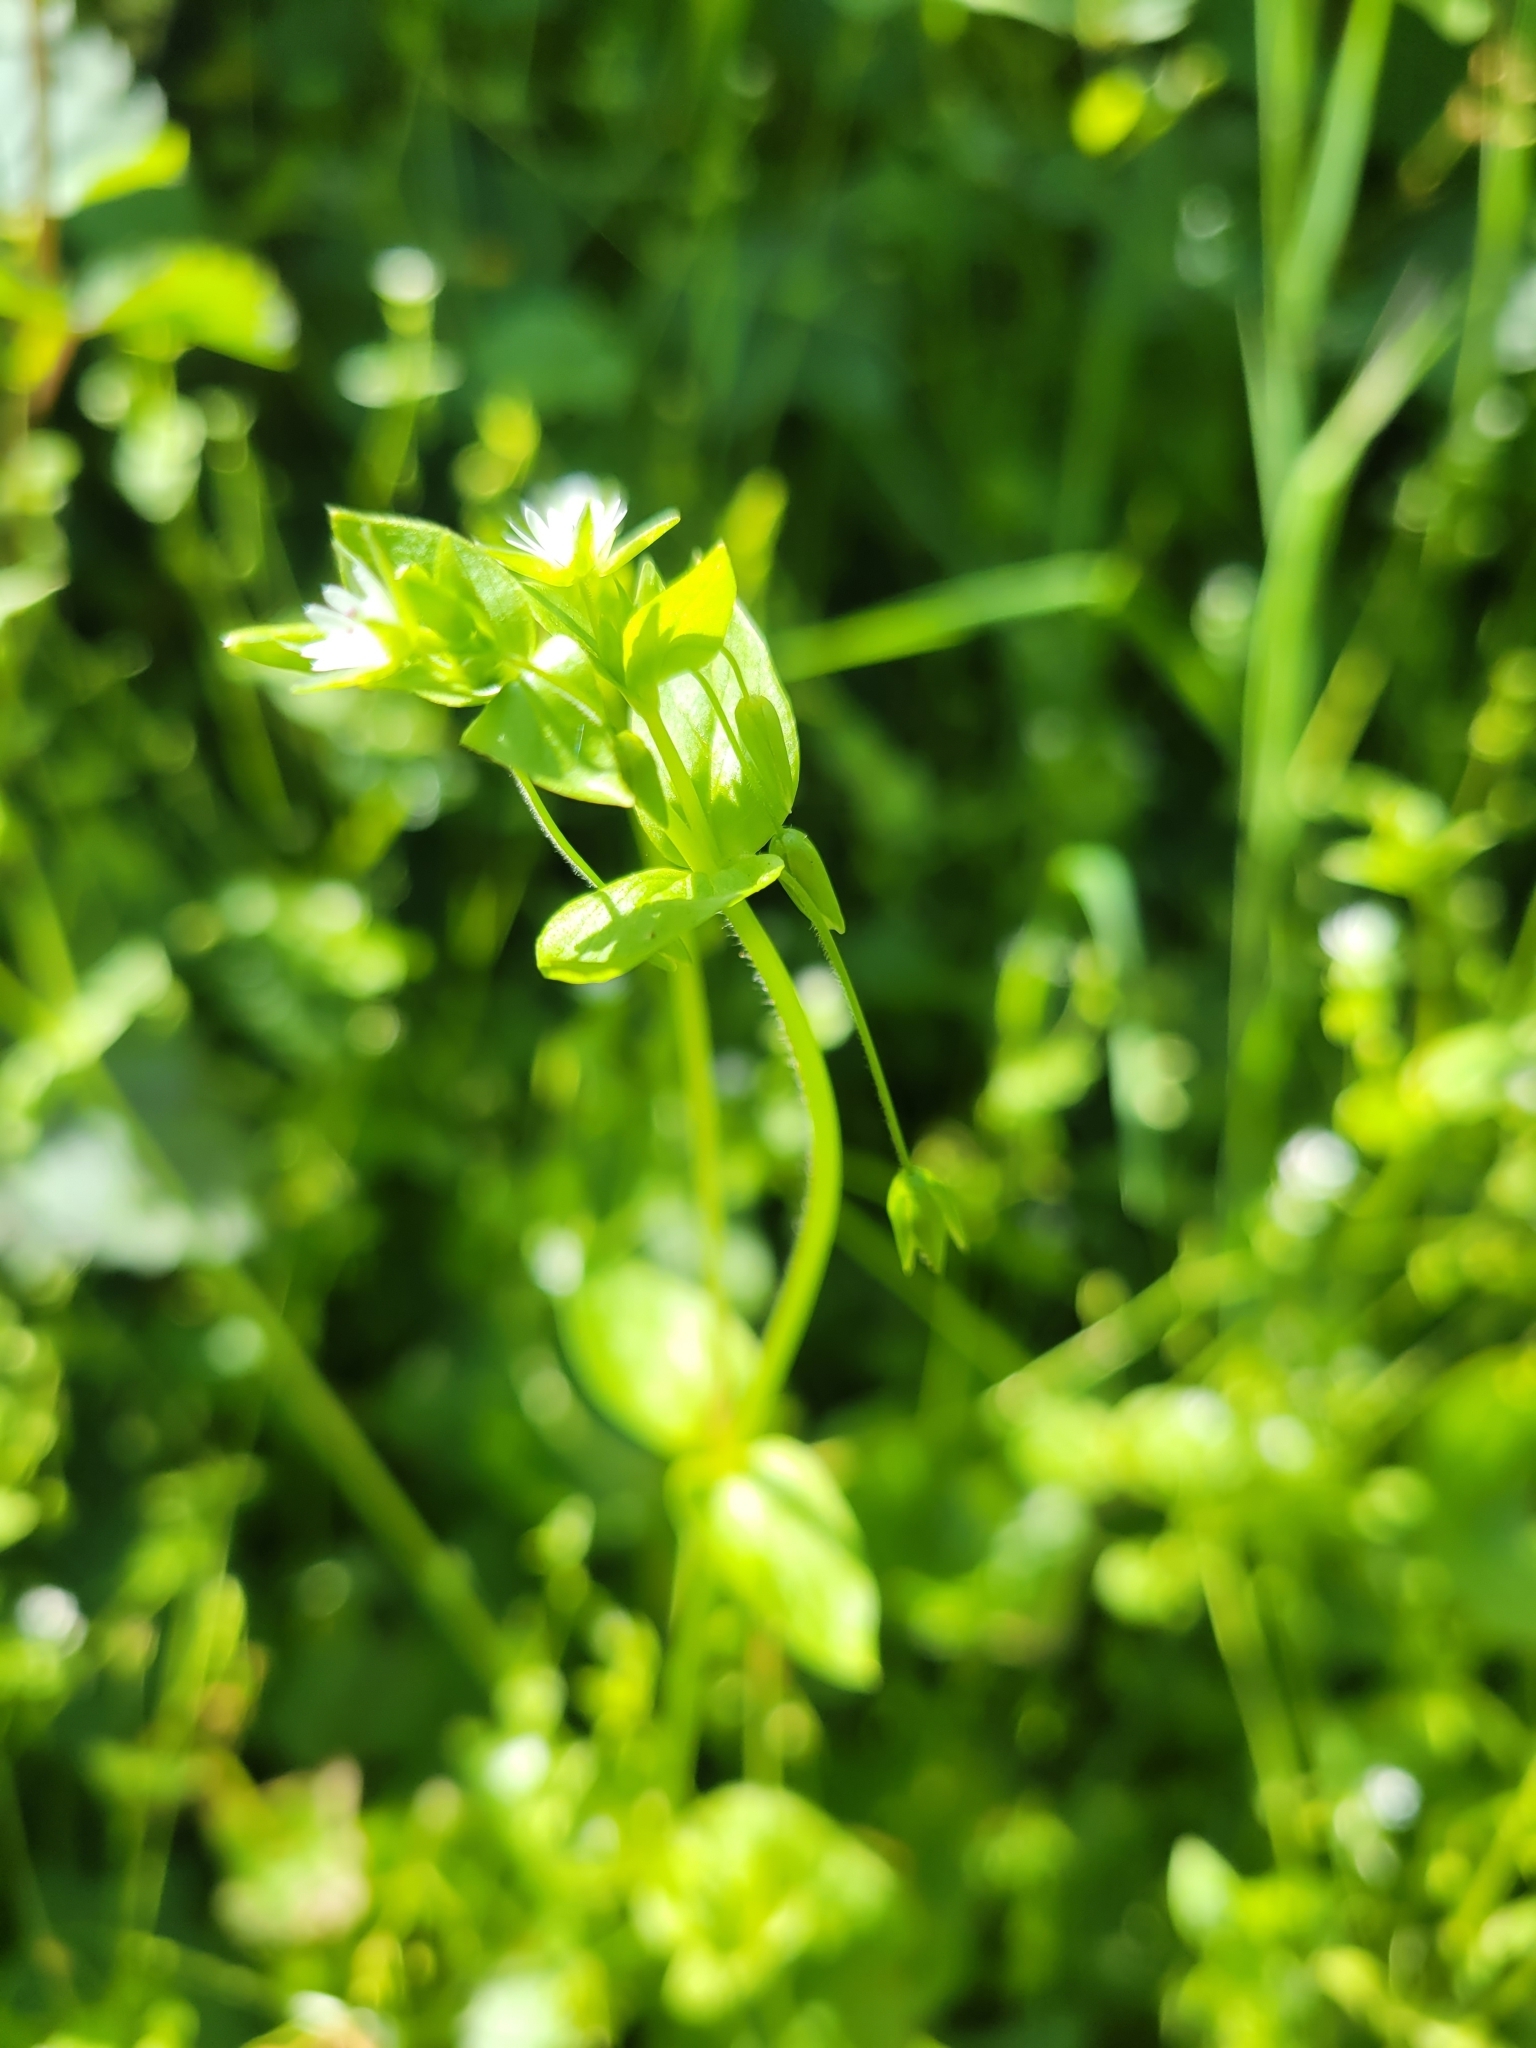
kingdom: Plantae
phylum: Tracheophyta
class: Magnoliopsida
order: Caryophyllales
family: Caryophyllaceae
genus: Stellaria
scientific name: Stellaria media
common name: Common chickweed
